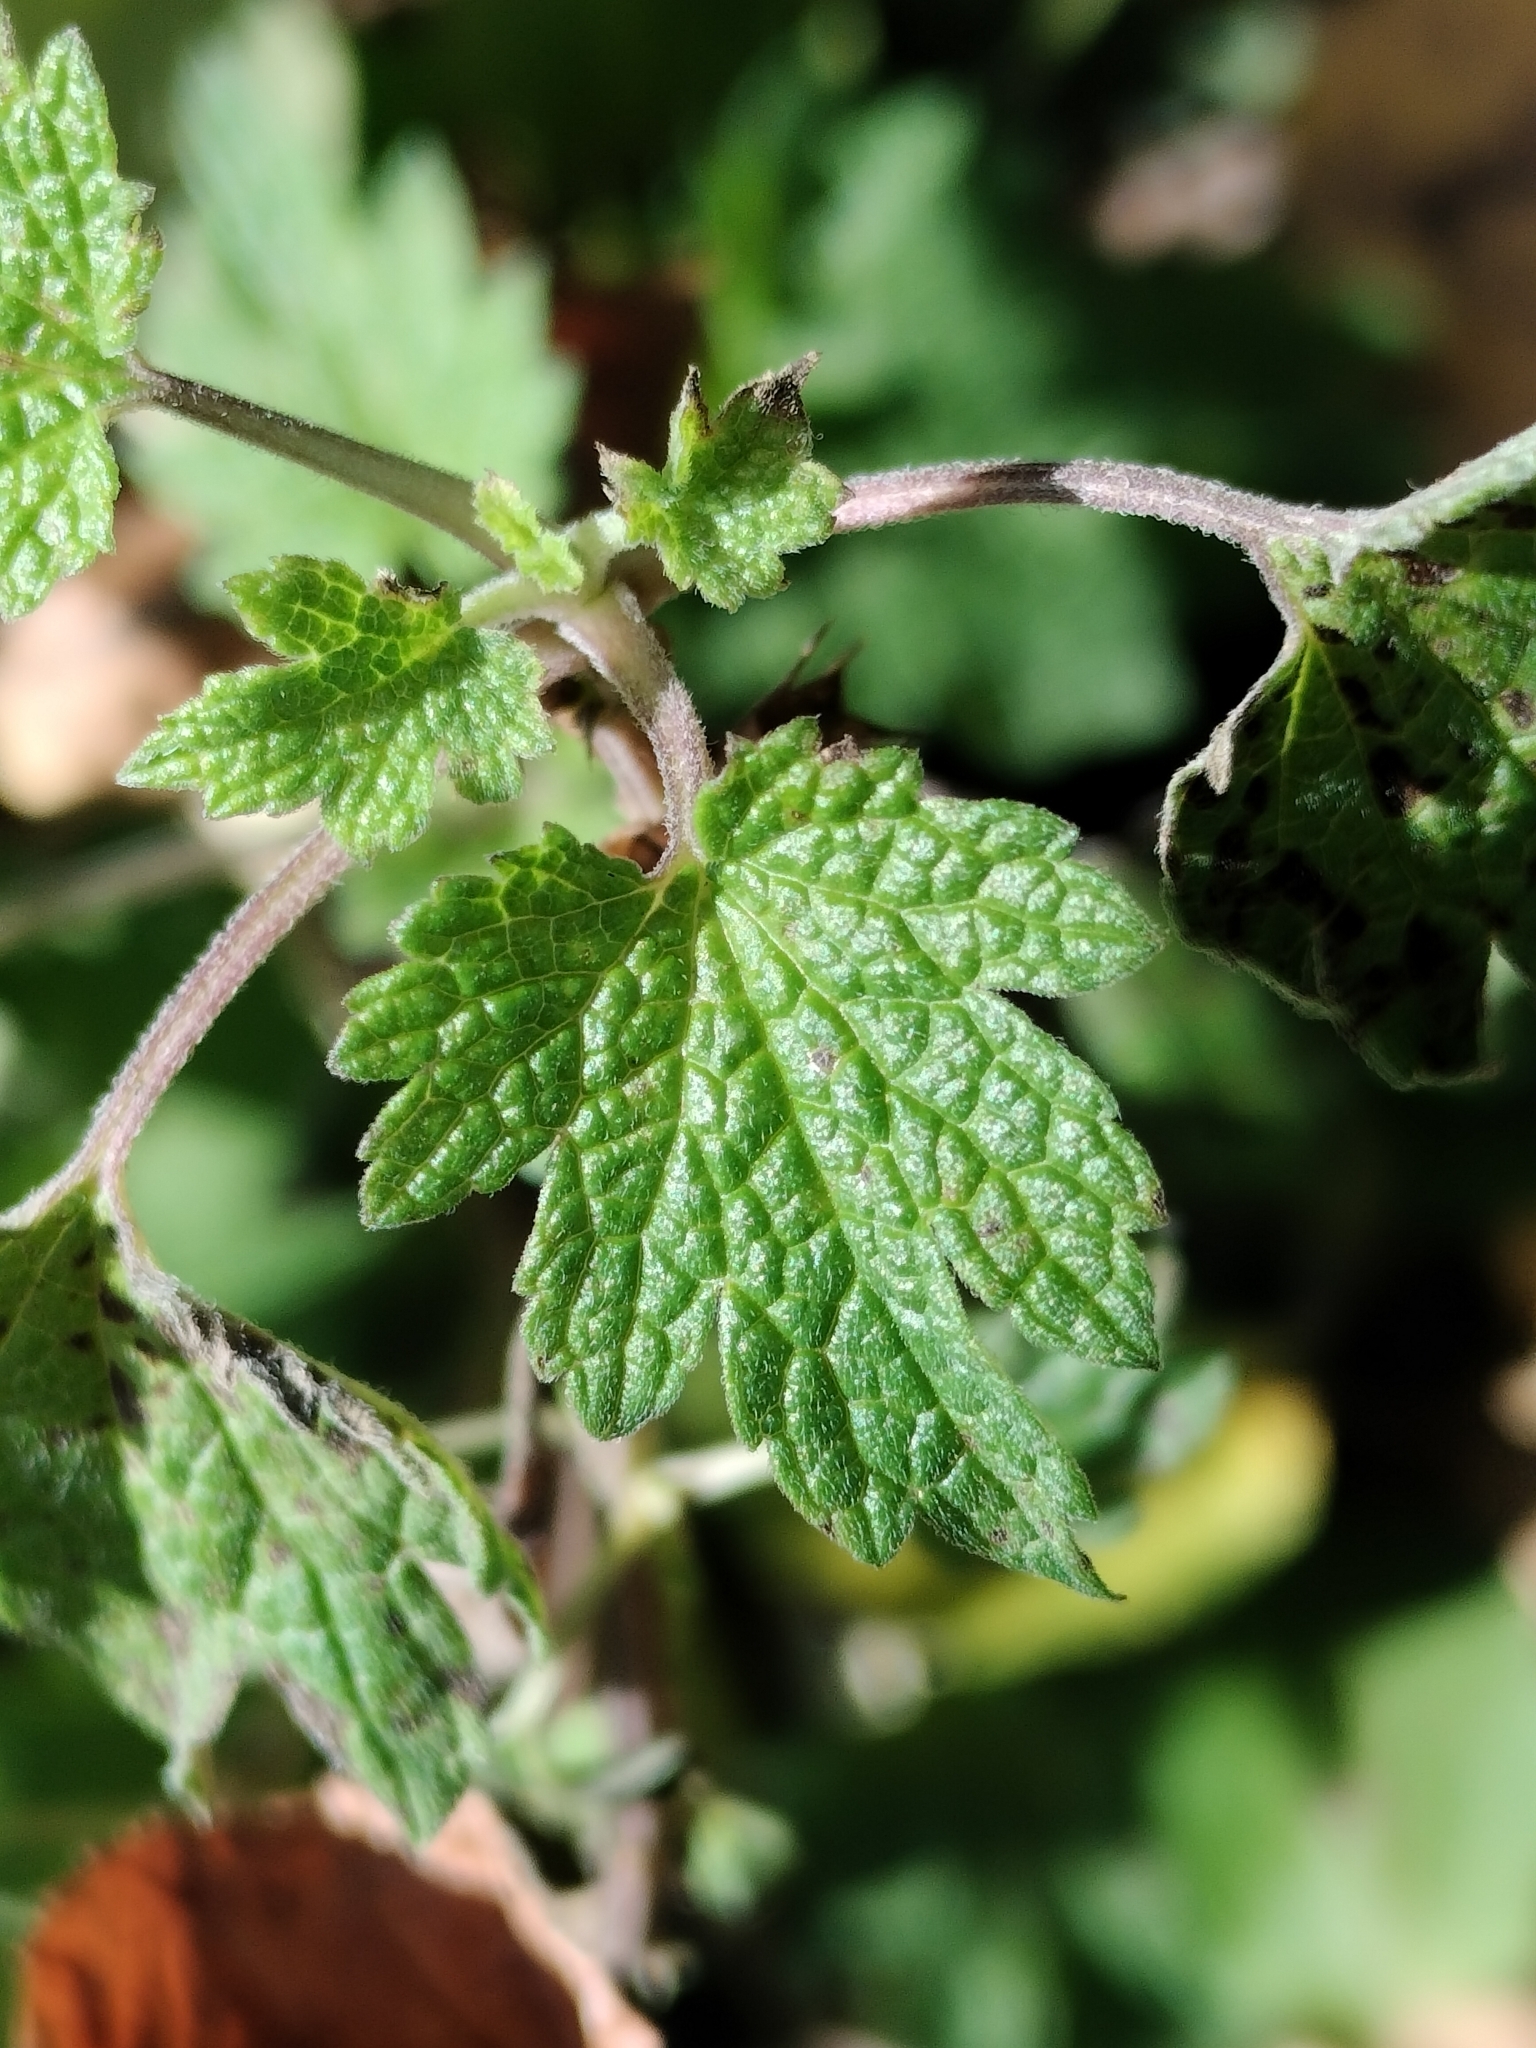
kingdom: Plantae
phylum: Tracheophyta
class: Magnoliopsida
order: Lamiales
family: Lamiaceae
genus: Leonurus
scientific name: Leonurus cardiaca
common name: Motherwort
